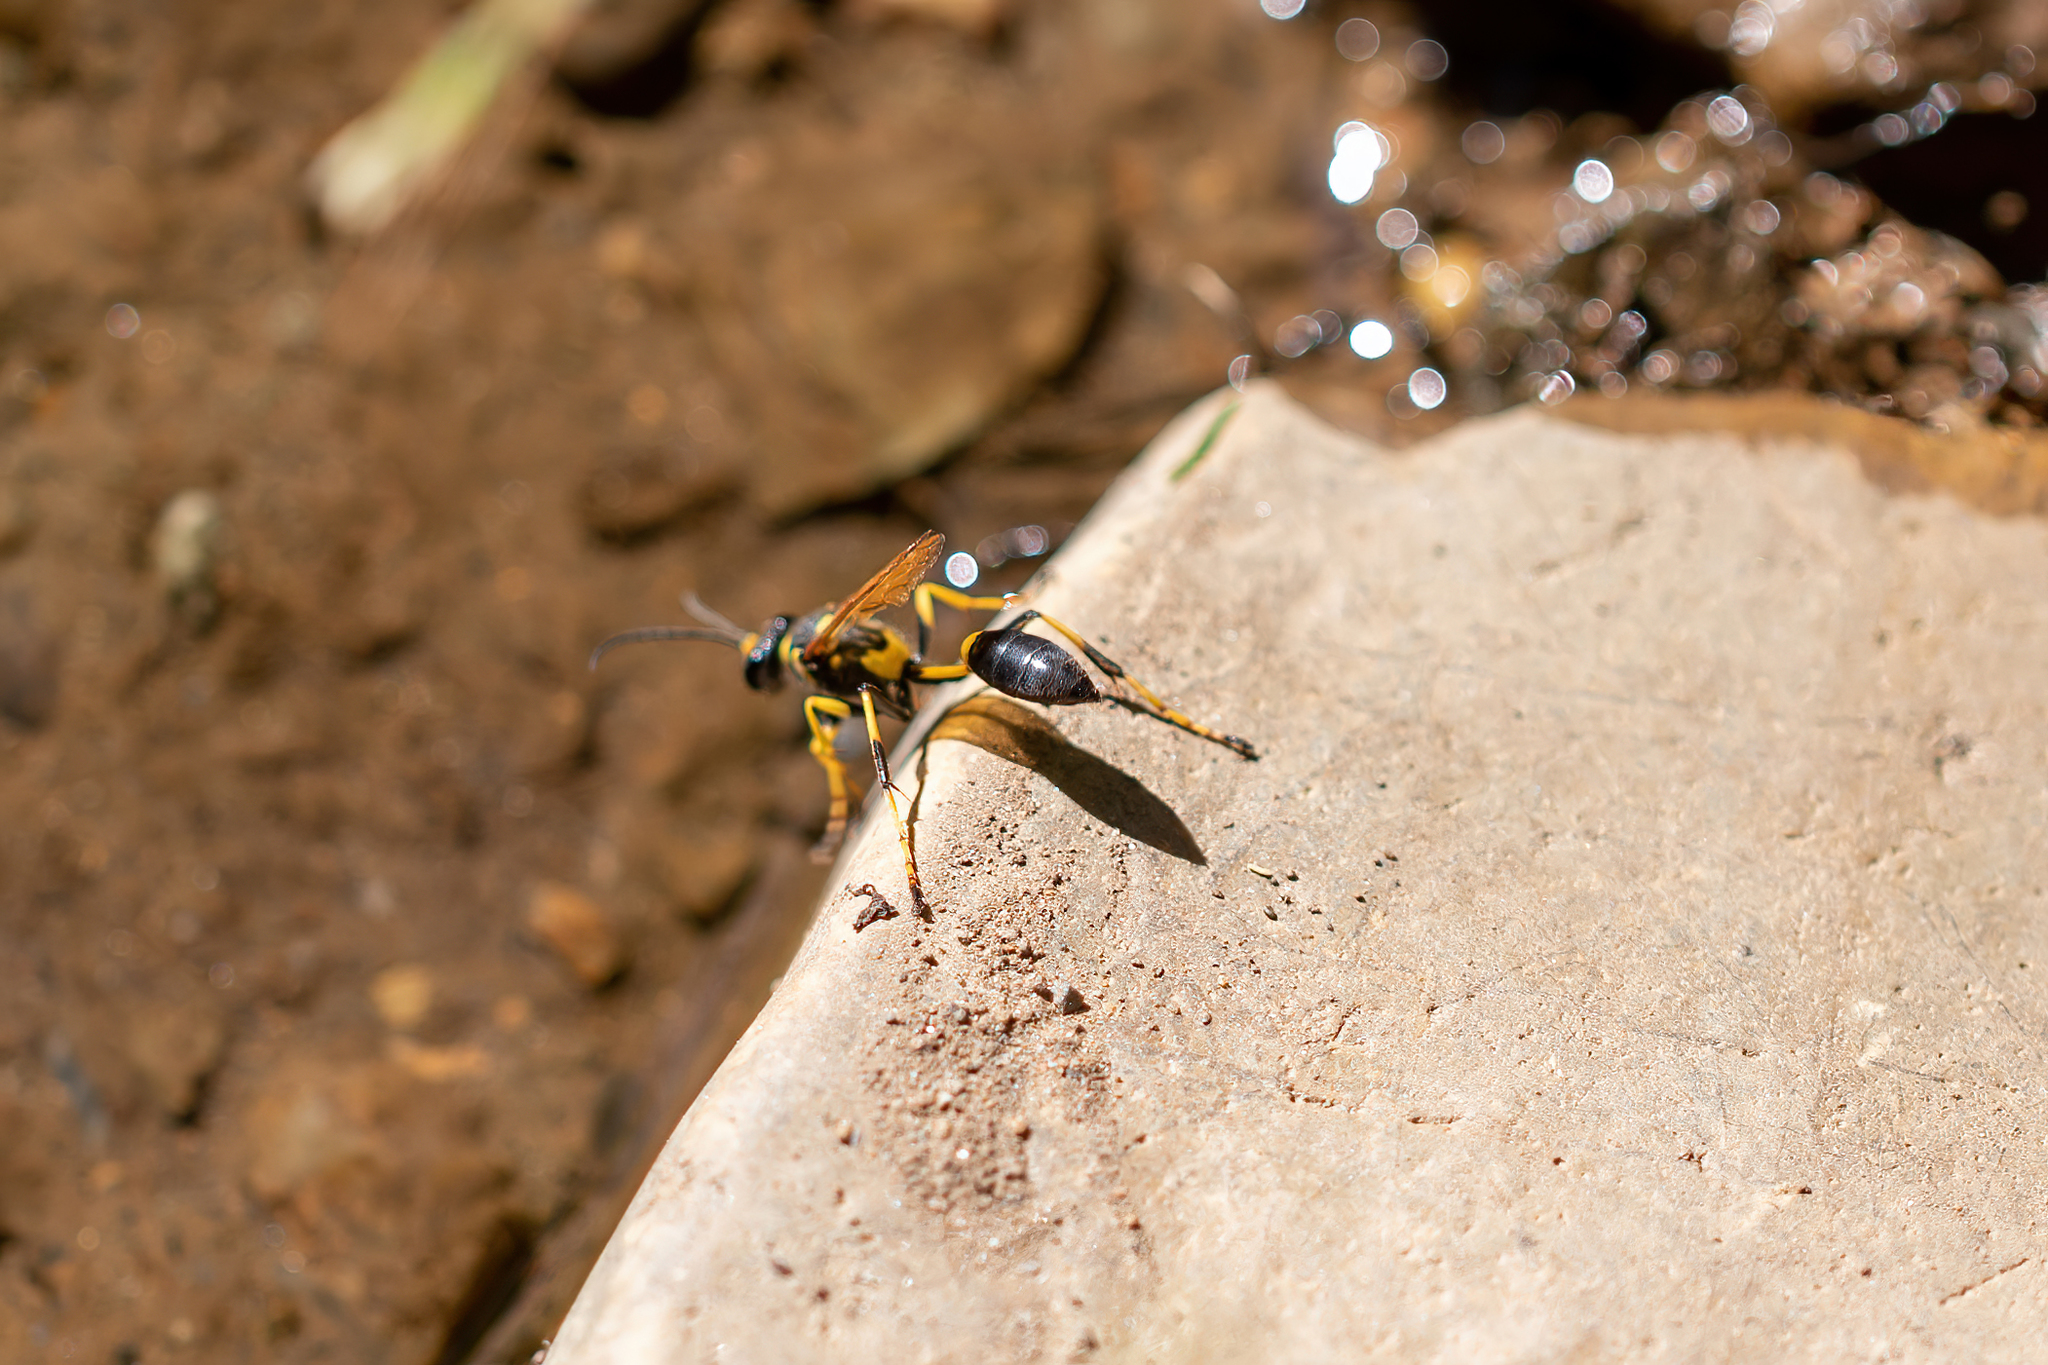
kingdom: Animalia
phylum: Arthropoda
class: Insecta
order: Hymenoptera
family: Sphecidae
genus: Sceliphron
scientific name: Sceliphron caementarium
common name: Mud dauber
